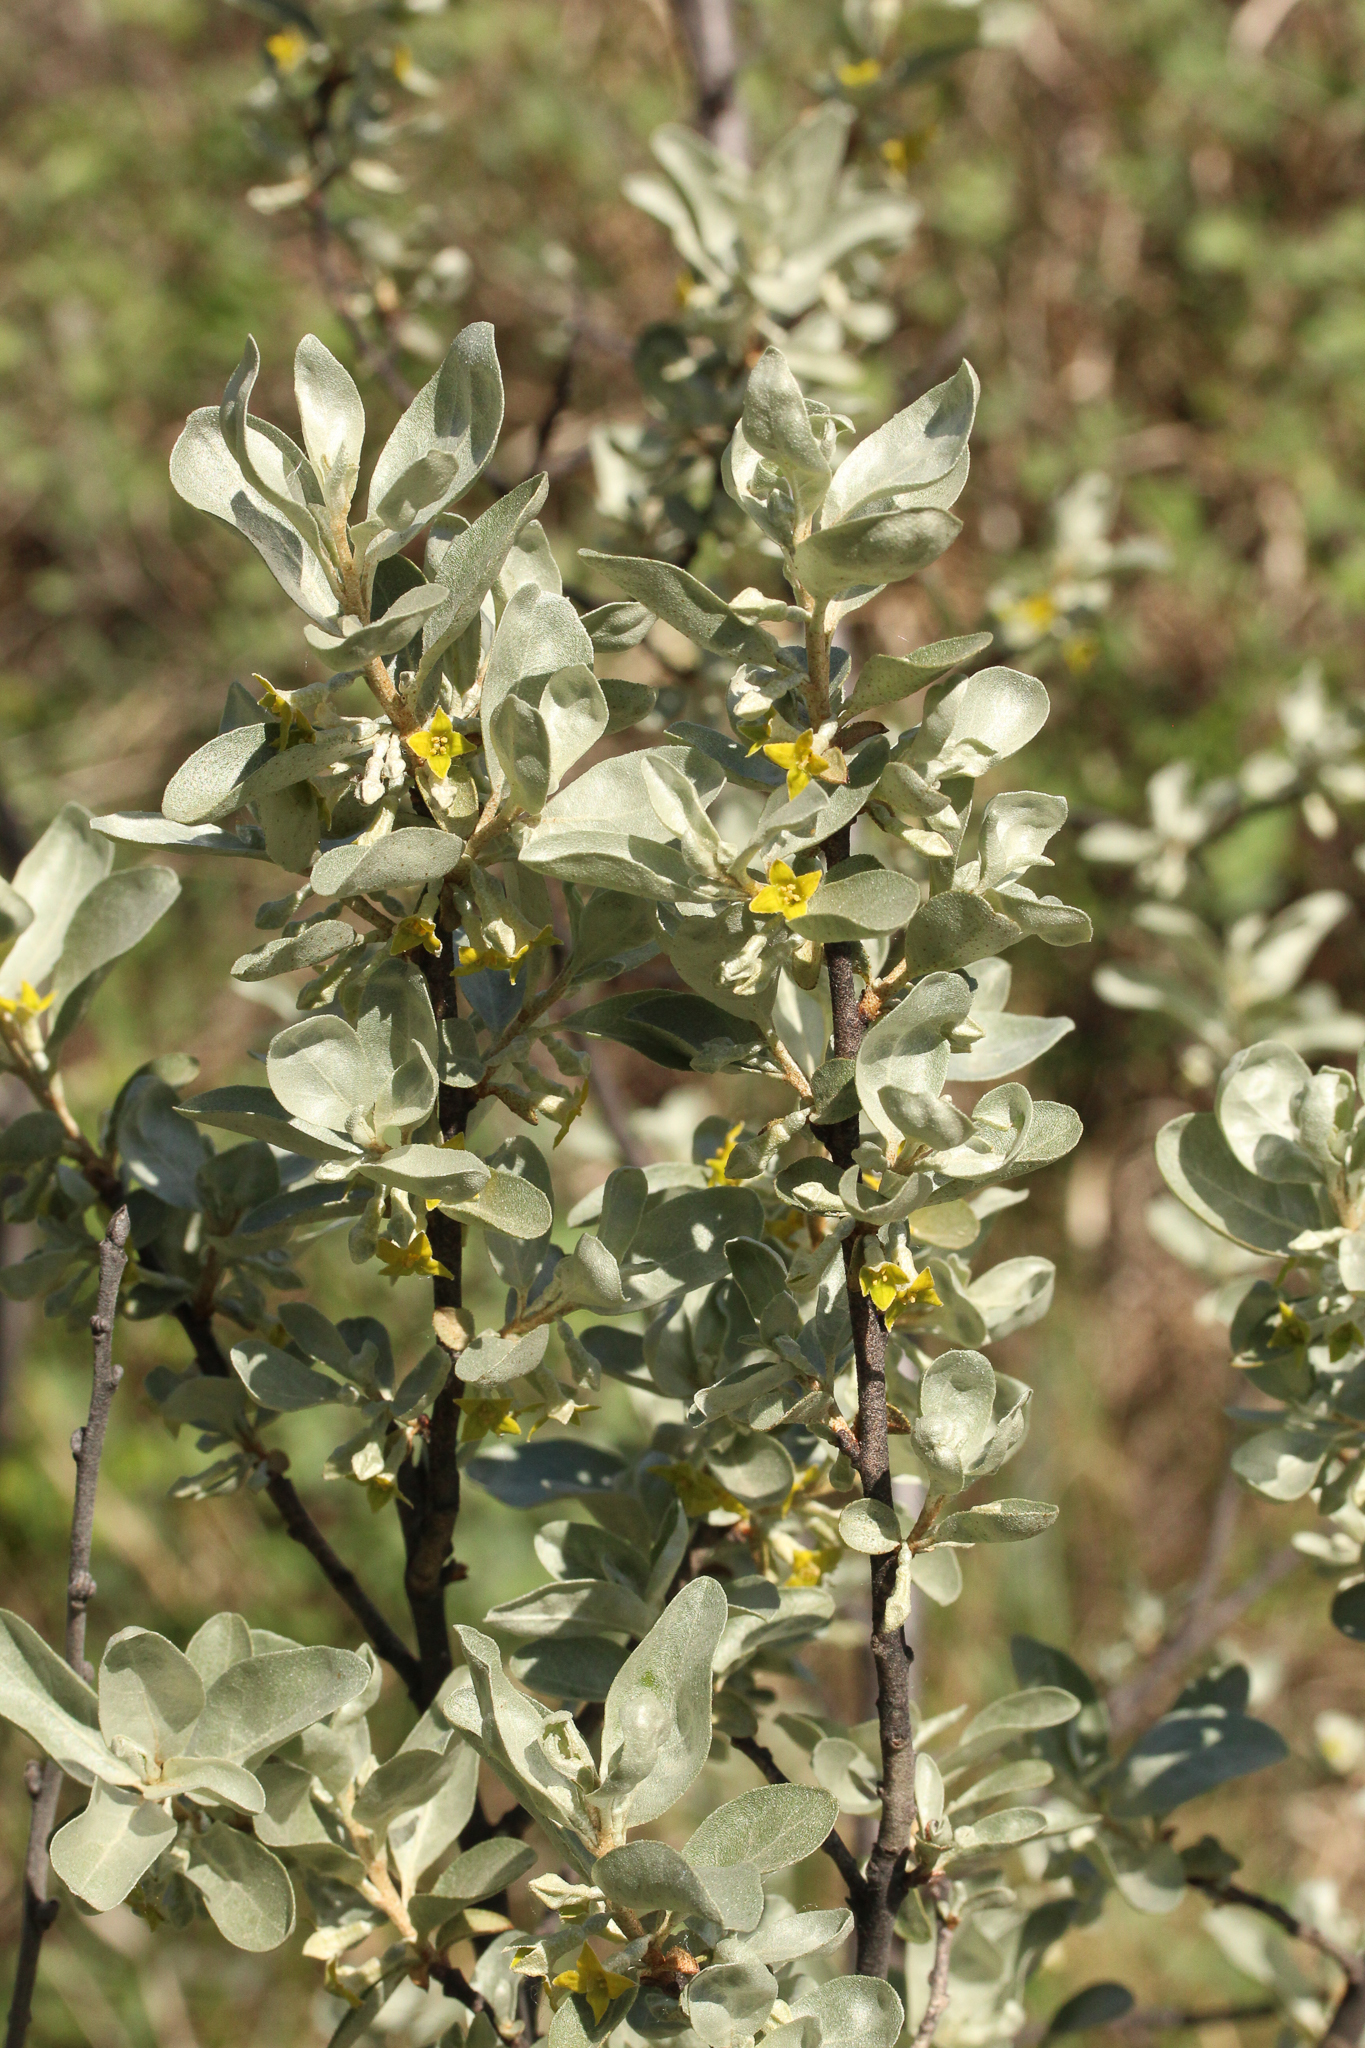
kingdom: Plantae
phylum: Tracheophyta
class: Magnoliopsida
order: Rosales
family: Elaeagnaceae
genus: Elaeagnus
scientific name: Elaeagnus commutata
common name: Silverberry
